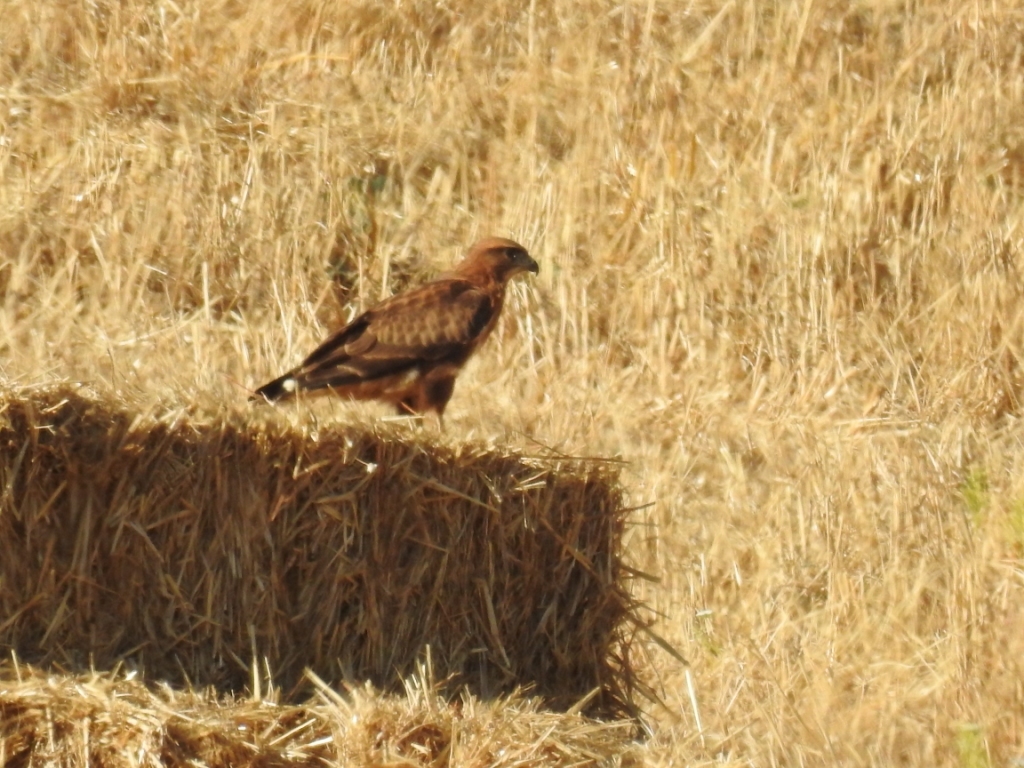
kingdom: Animalia
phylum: Chordata
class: Aves
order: Accipitriformes
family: Accipitridae
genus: Buteo
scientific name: Buteo rufinus
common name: Long-legged buzzard
